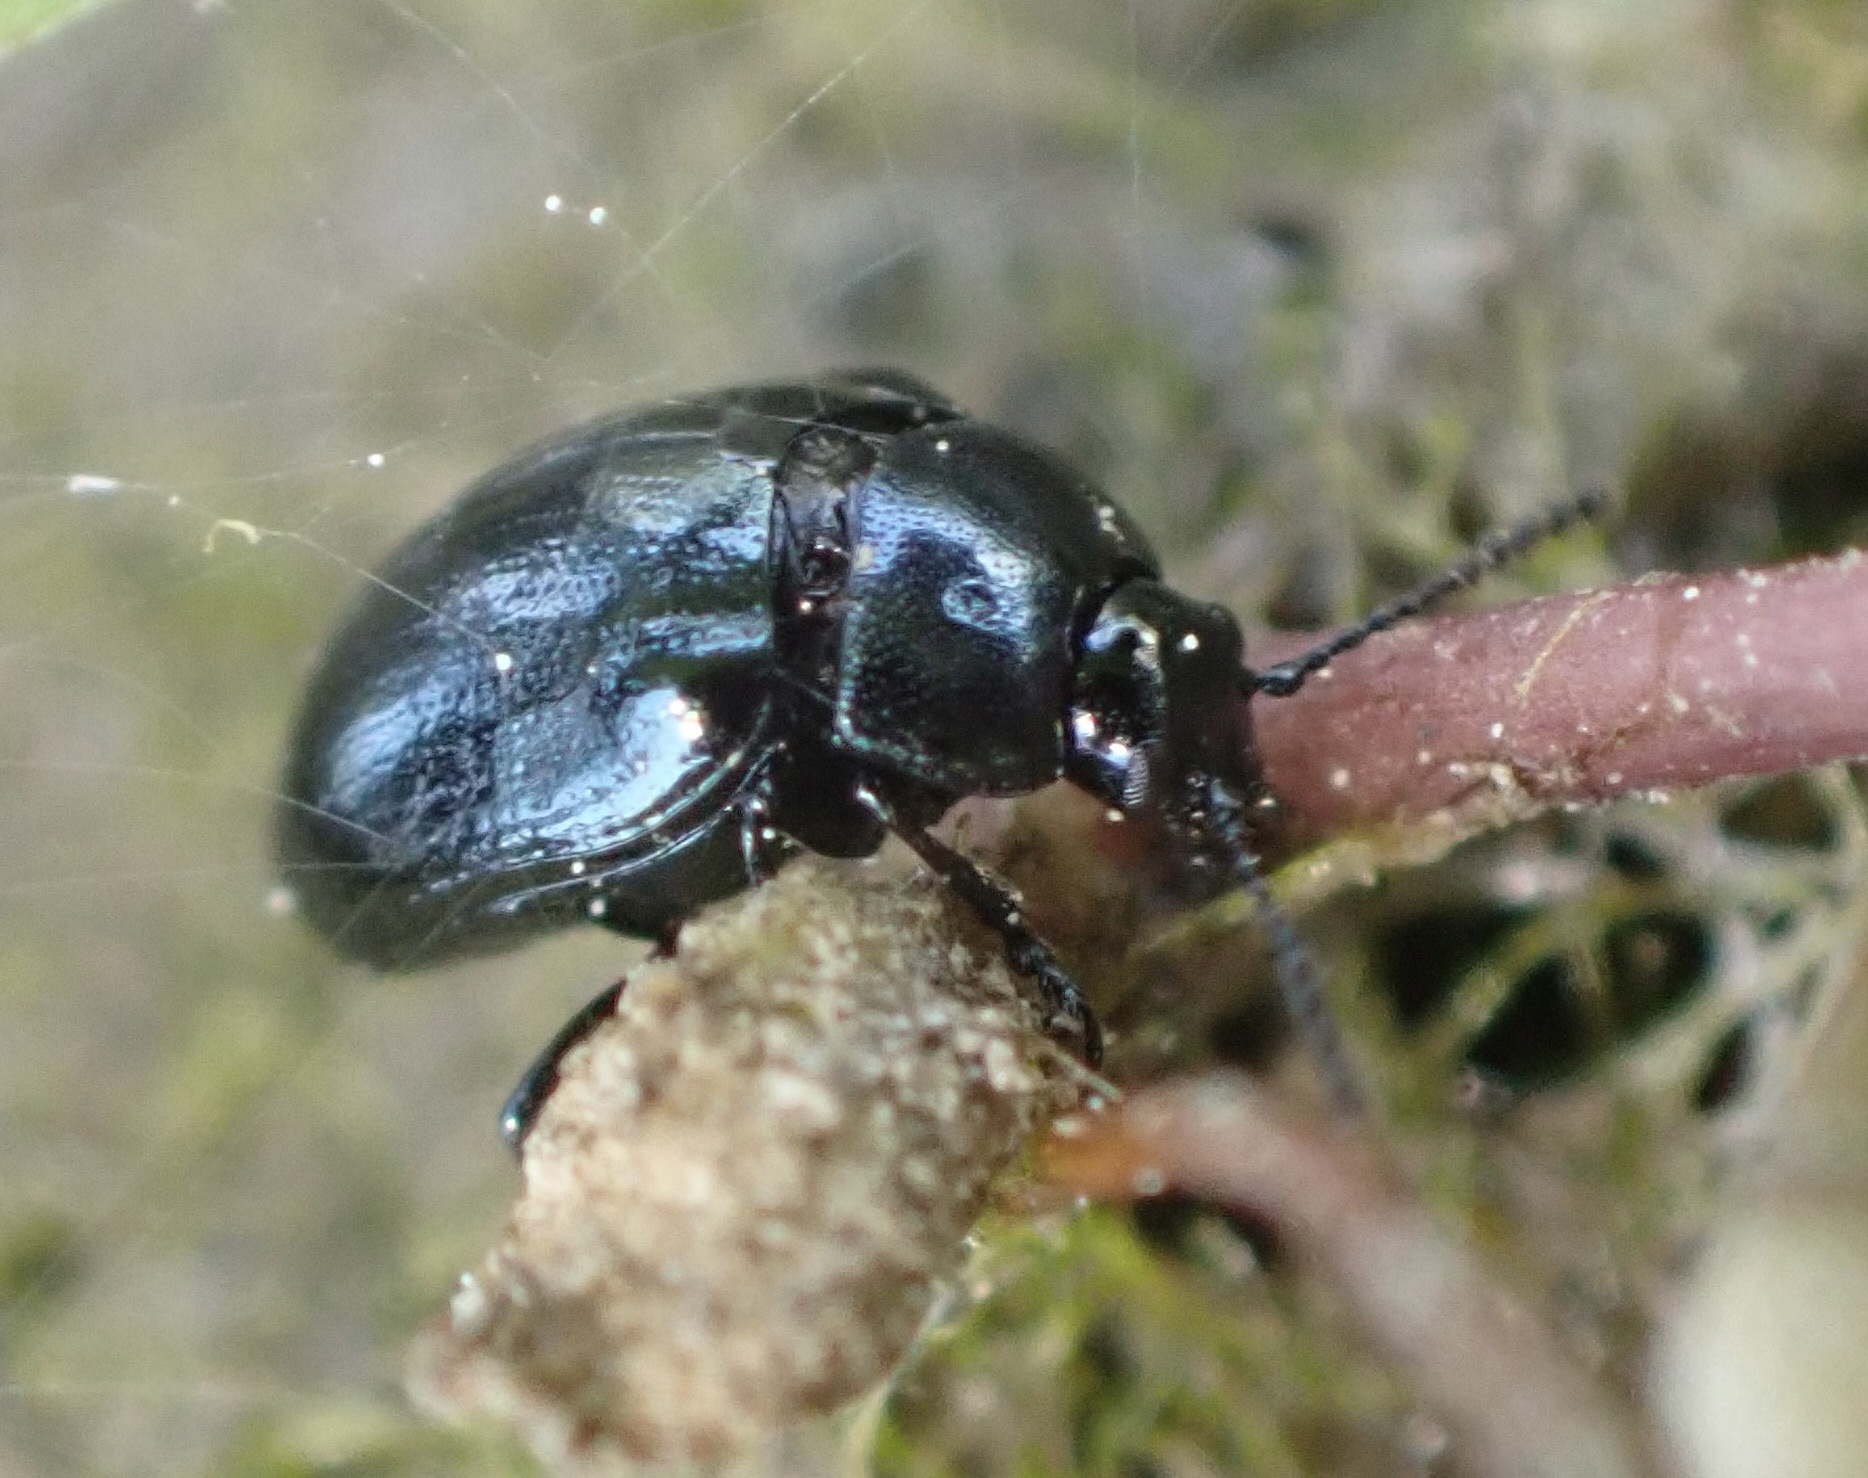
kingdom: Animalia
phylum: Arthropoda
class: Insecta
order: Coleoptera
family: Chrysomelidae
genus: Phaedon
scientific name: Phaedon armoraciae
